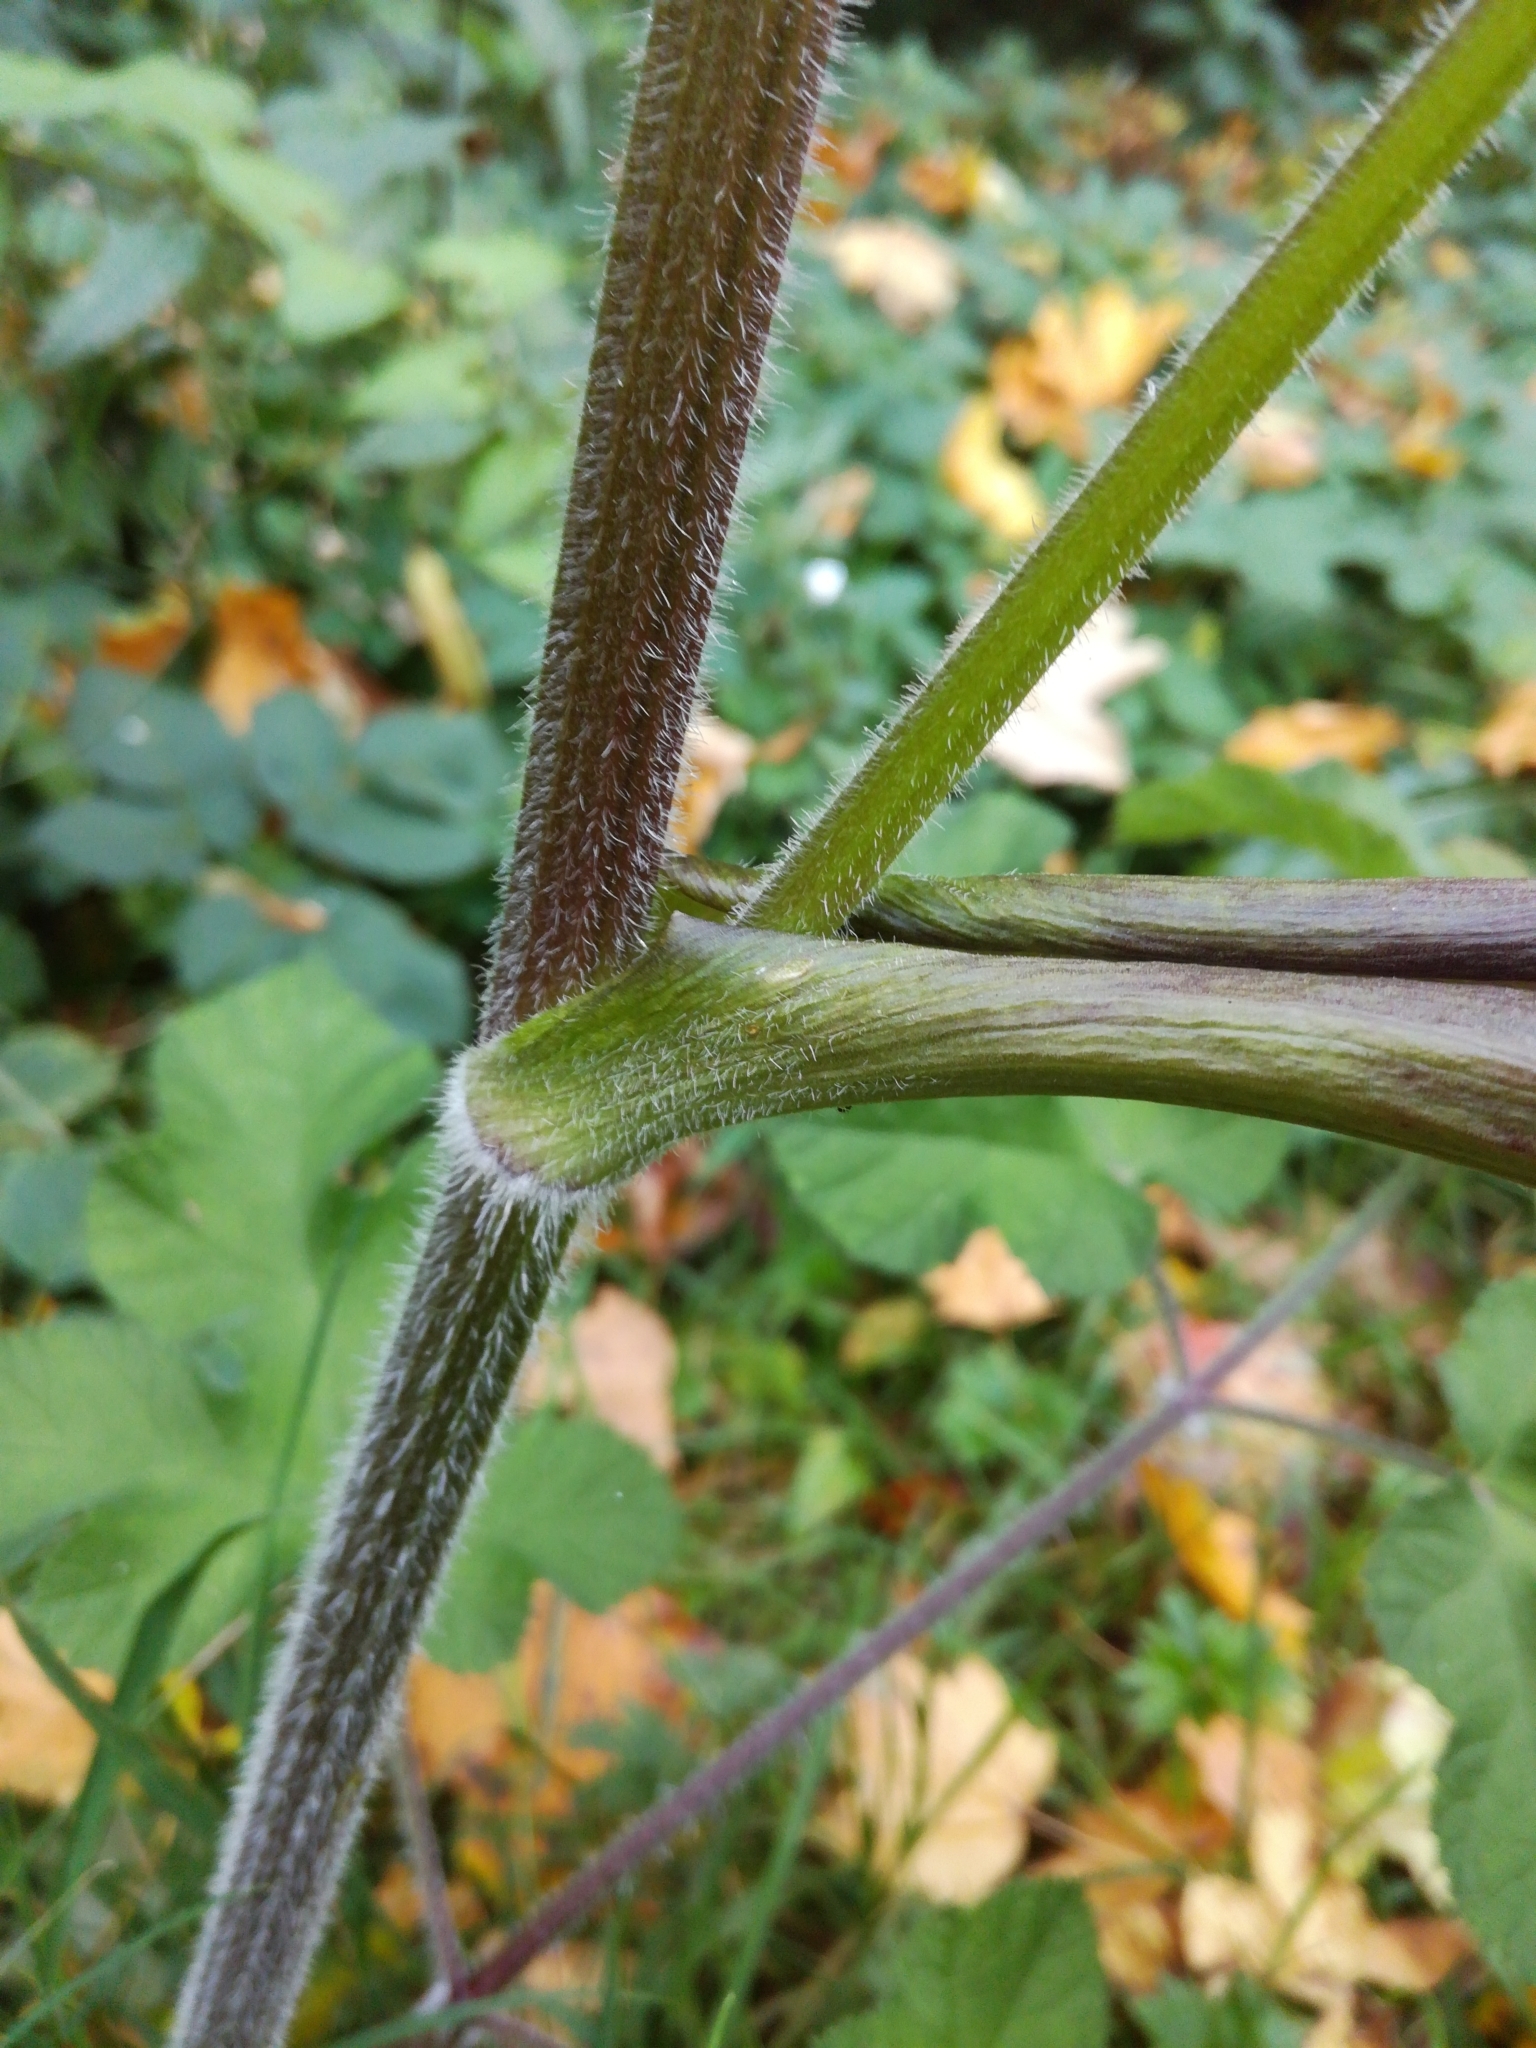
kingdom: Plantae
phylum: Tracheophyta
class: Magnoliopsida
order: Apiales
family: Apiaceae
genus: Heracleum
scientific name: Heracleum sphondylium
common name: Hogweed
